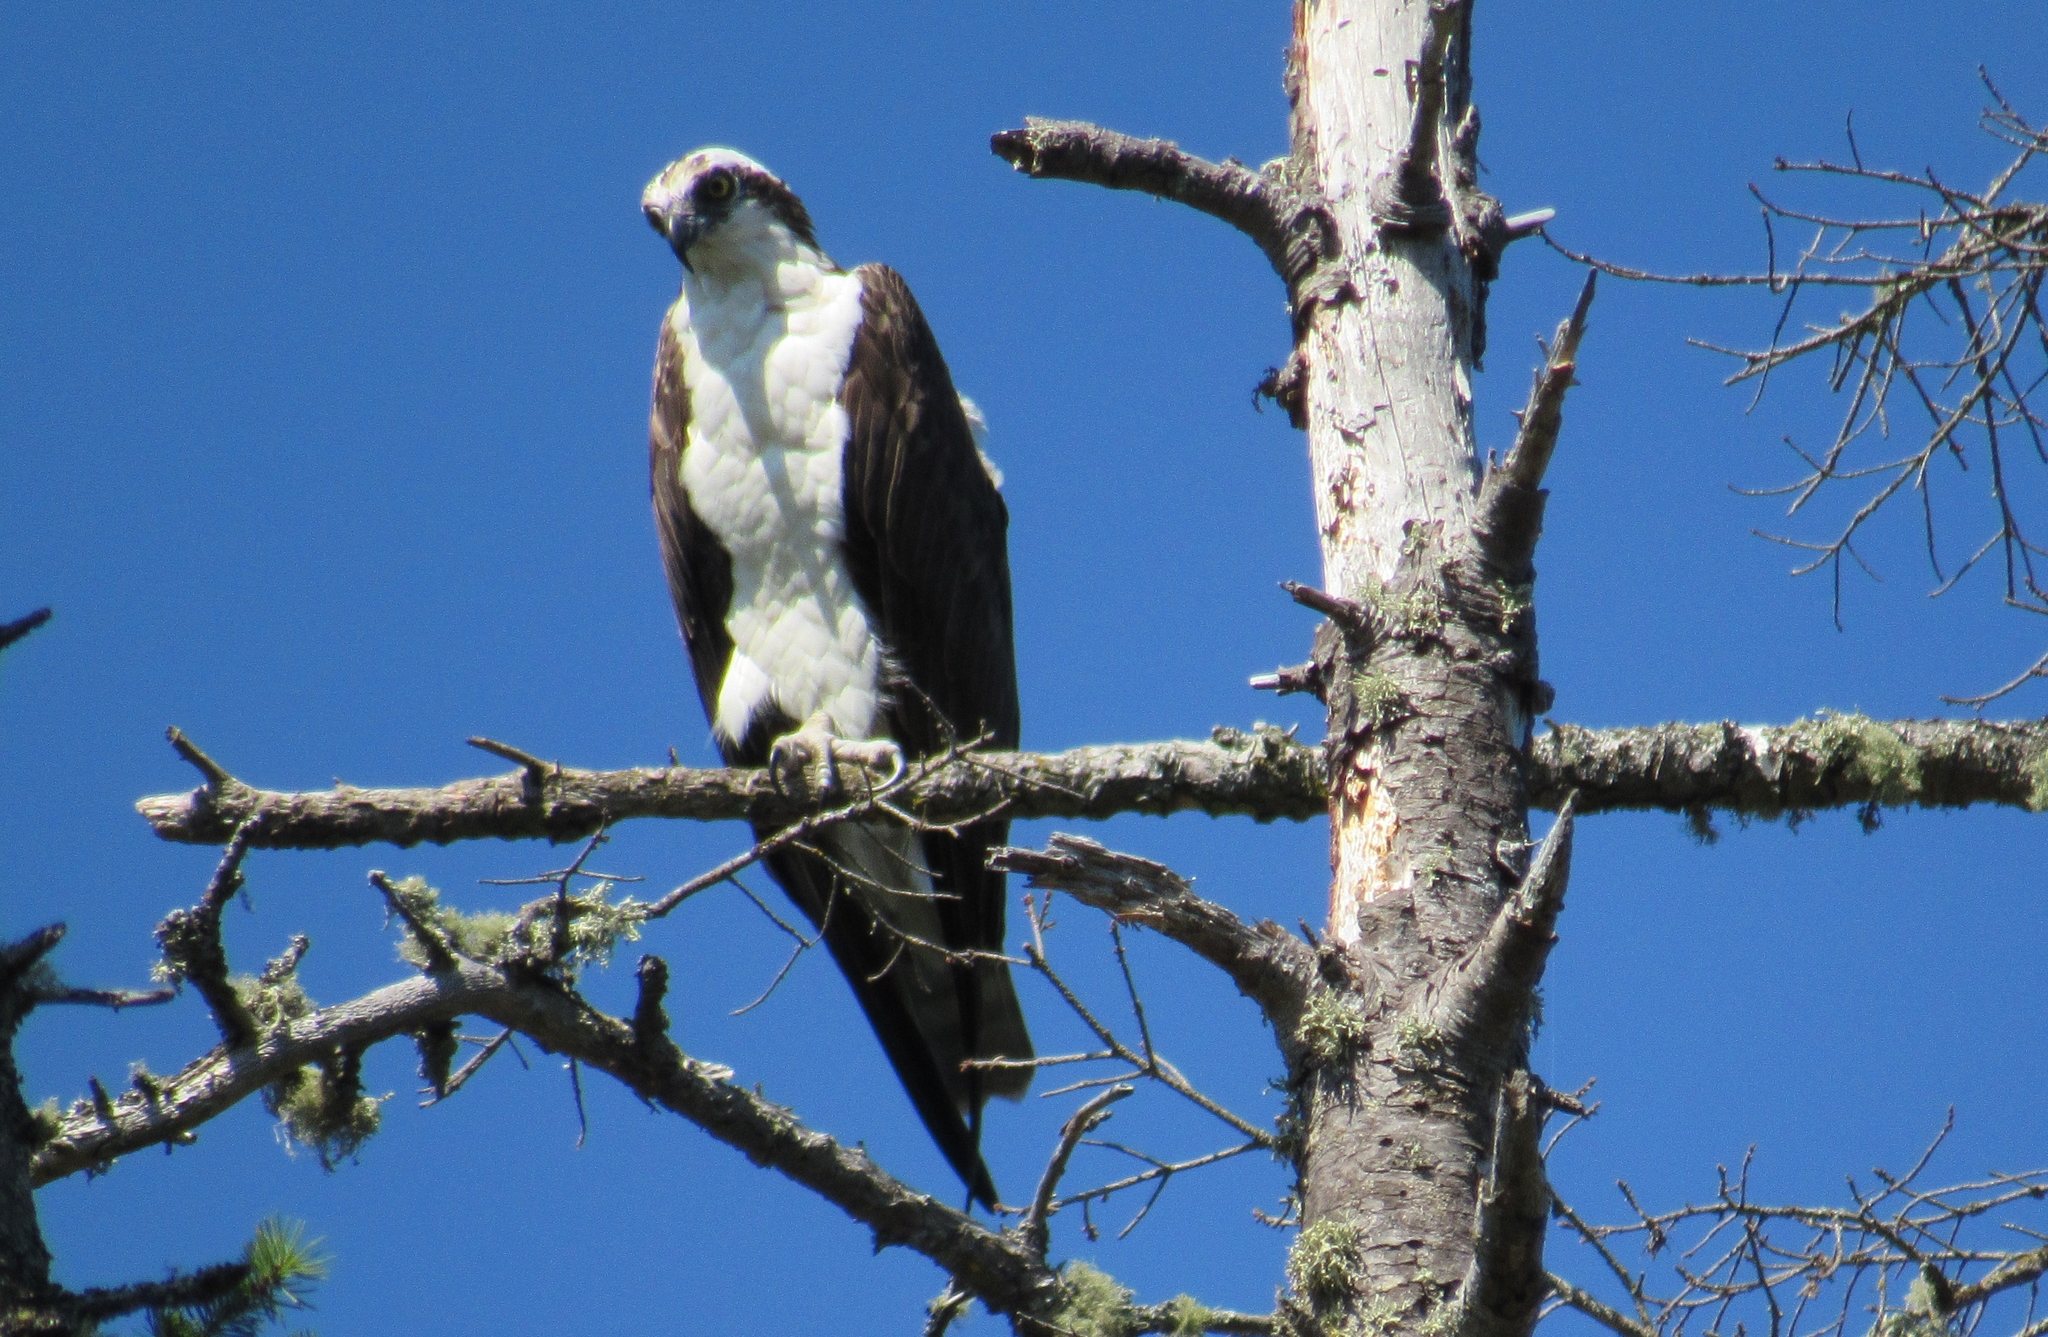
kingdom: Animalia
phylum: Chordata
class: Aves
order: Accipitriformes
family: Pandionidae
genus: Pandion
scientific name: Pandion haliaetus
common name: Osprey
